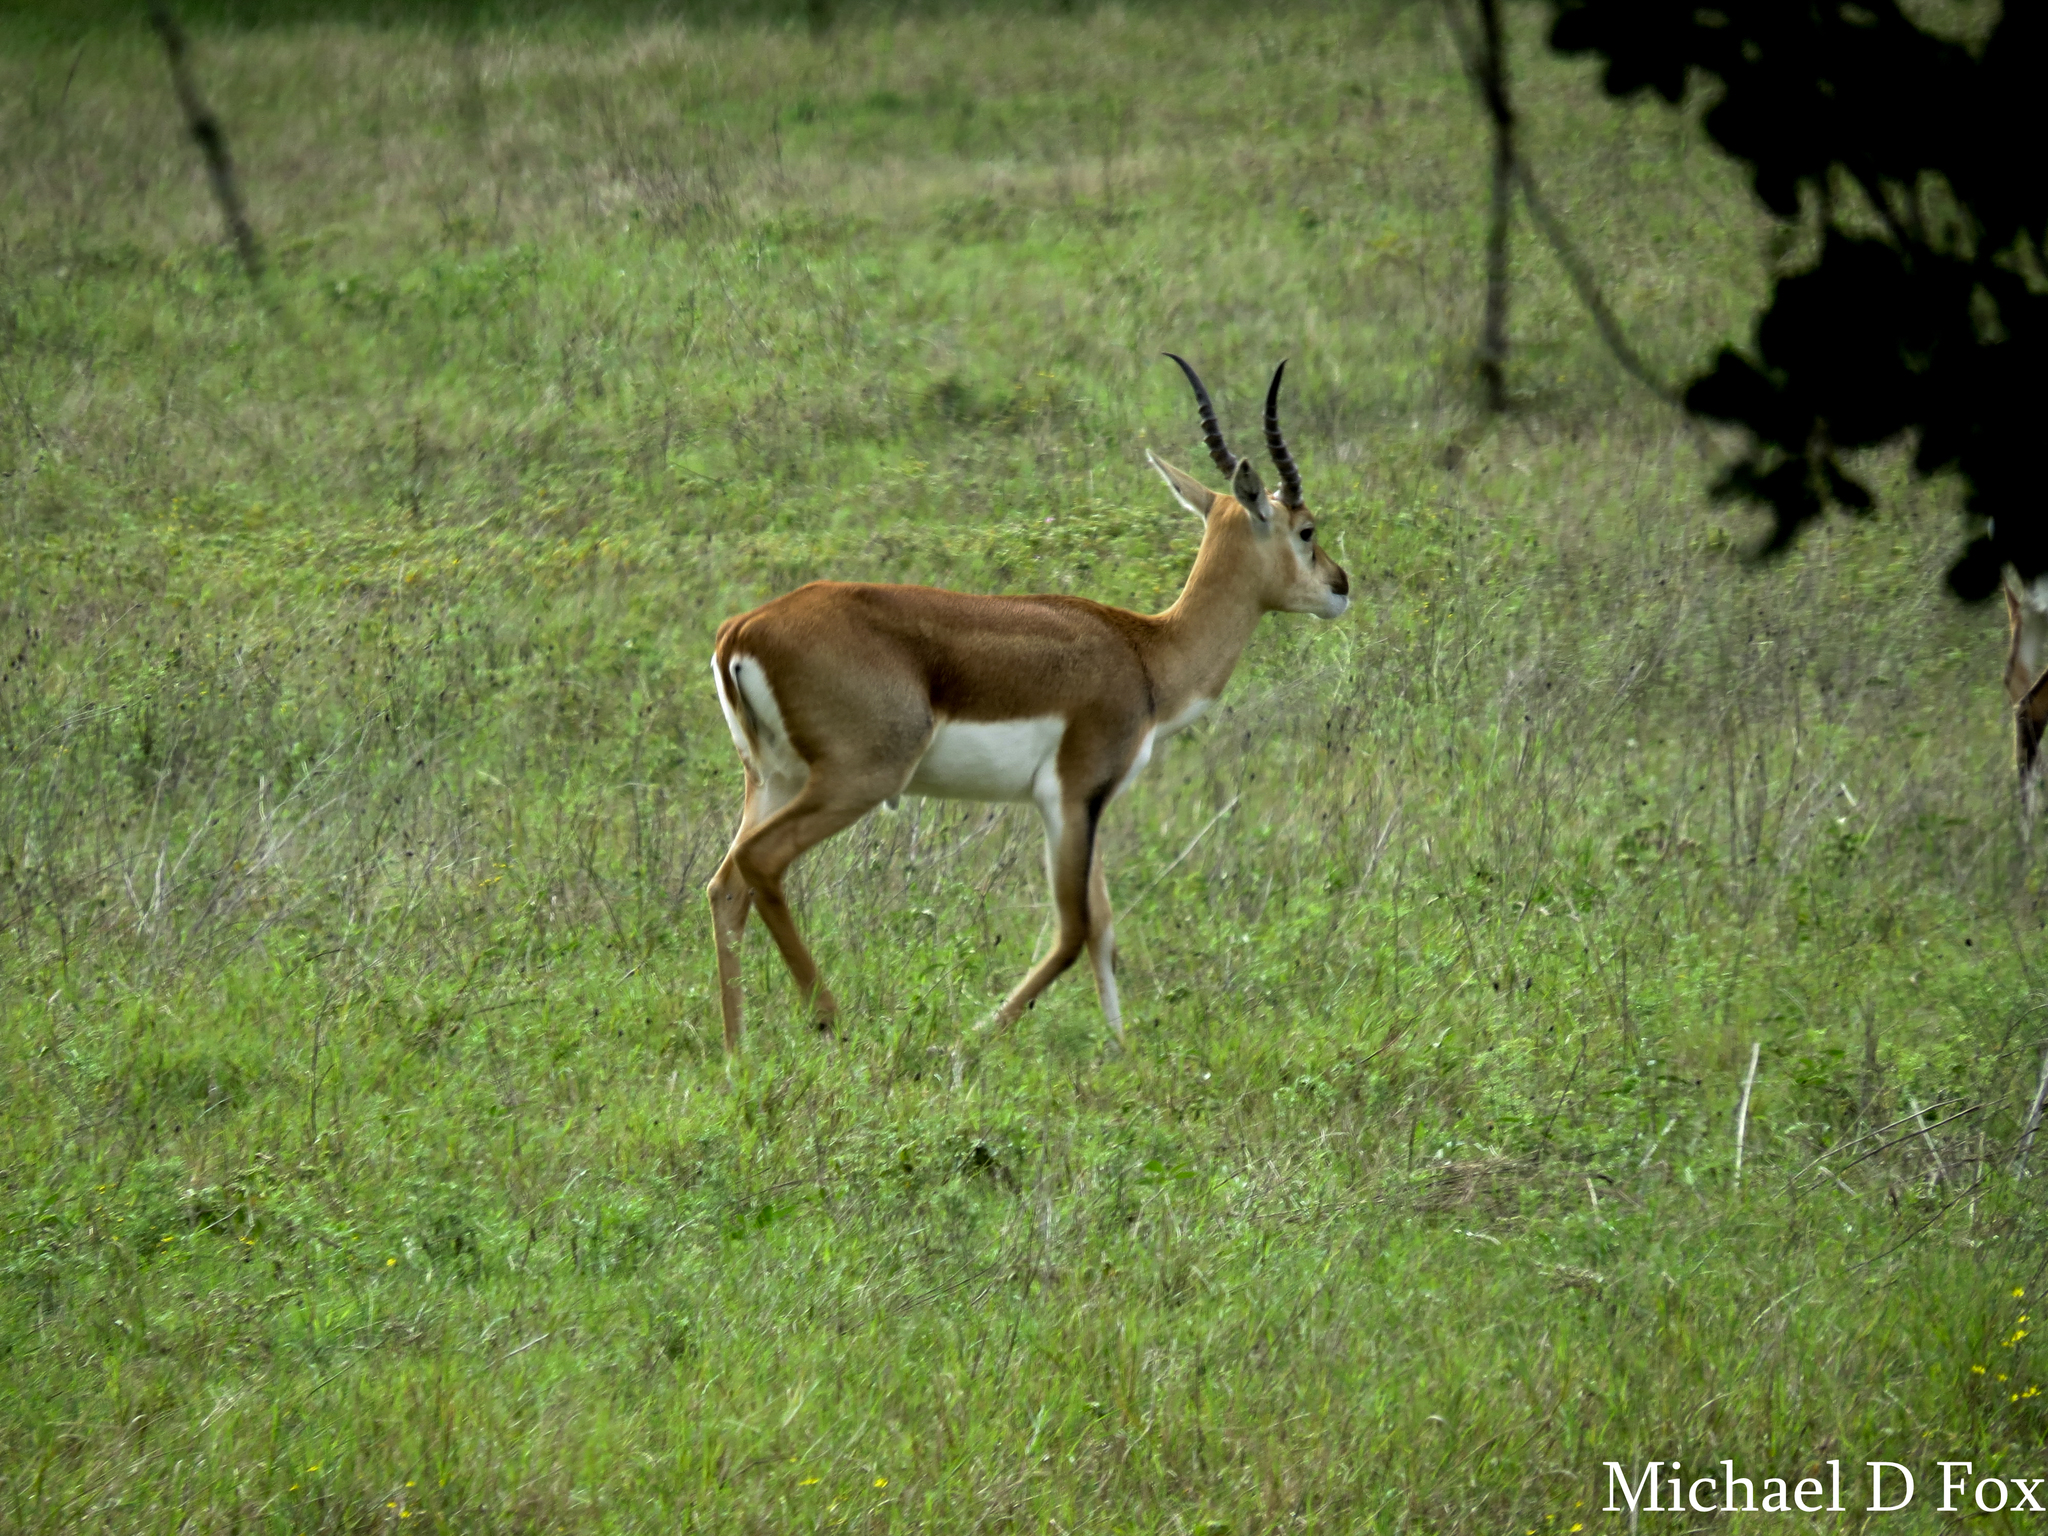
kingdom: Animalia
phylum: Chordata
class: Mammalia
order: Artiodactyla
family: Bovidae
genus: Antilope
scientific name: Antilope cervicapra
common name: Blackbuck
